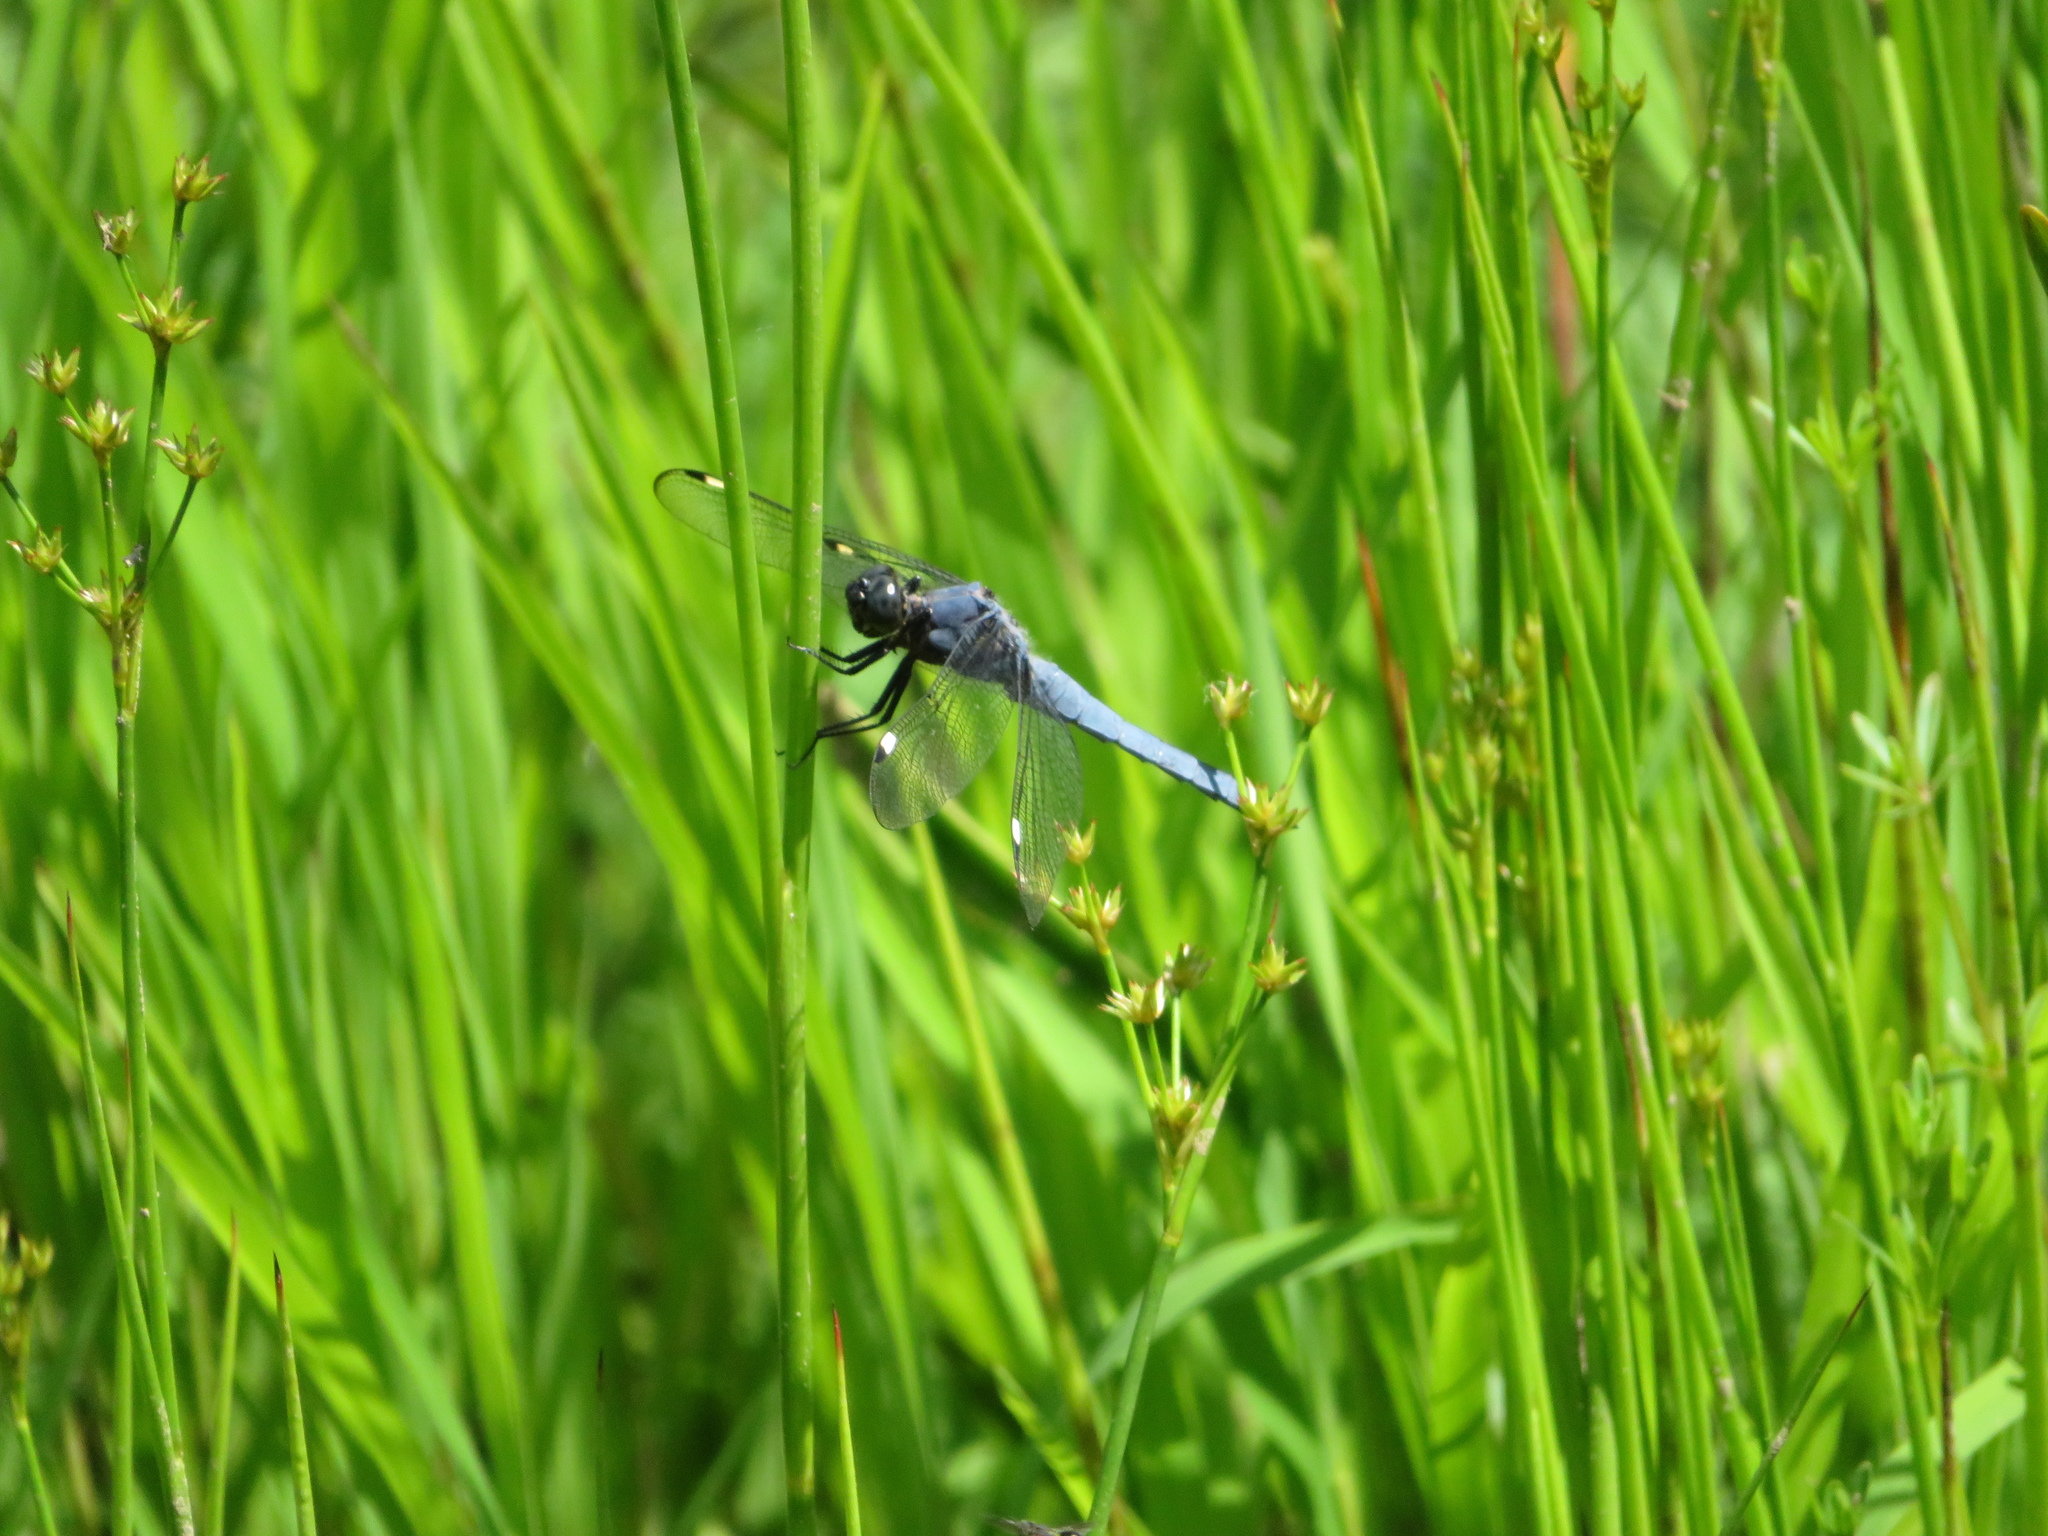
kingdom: Animalia
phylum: Arthropoda
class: Insecta
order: Odonata
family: Libellulidae
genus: Libellula
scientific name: Libellula cyanea
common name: Spangled skimmer
